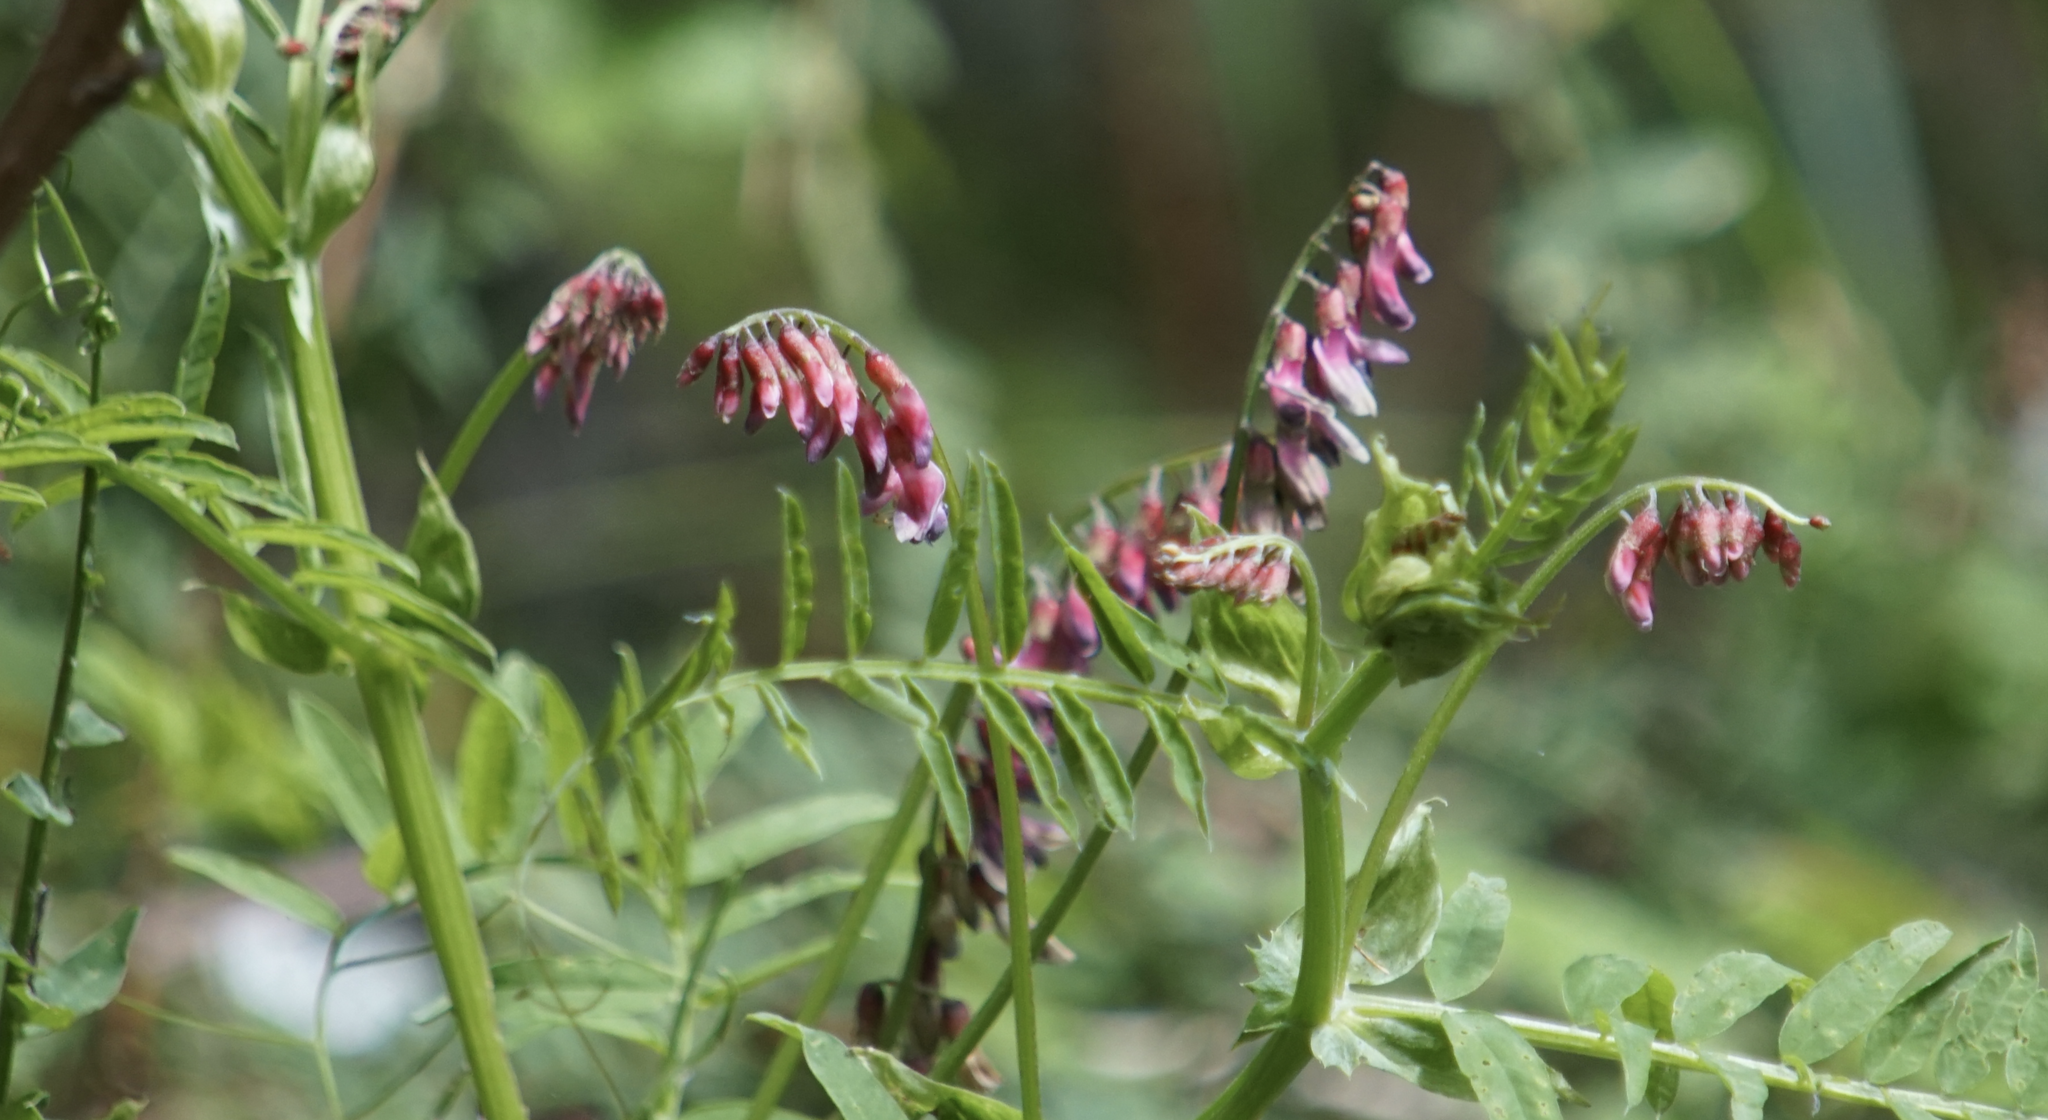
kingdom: Plantae
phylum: Tracheophyta
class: Magnoliopsida
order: Fabales
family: Fabaceae
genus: Vicia
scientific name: Vicia
